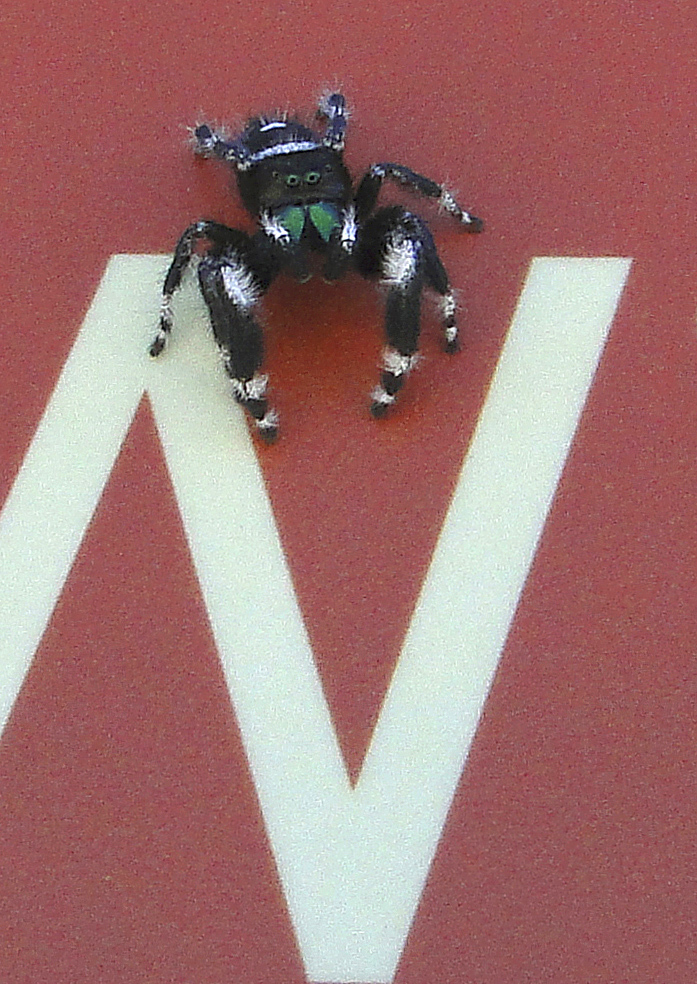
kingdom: Animalia
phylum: Arthropoda
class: Arachnida
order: Araneae
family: Salticidae
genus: Phidippus
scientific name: Phidippus audax
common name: Bold jumper
